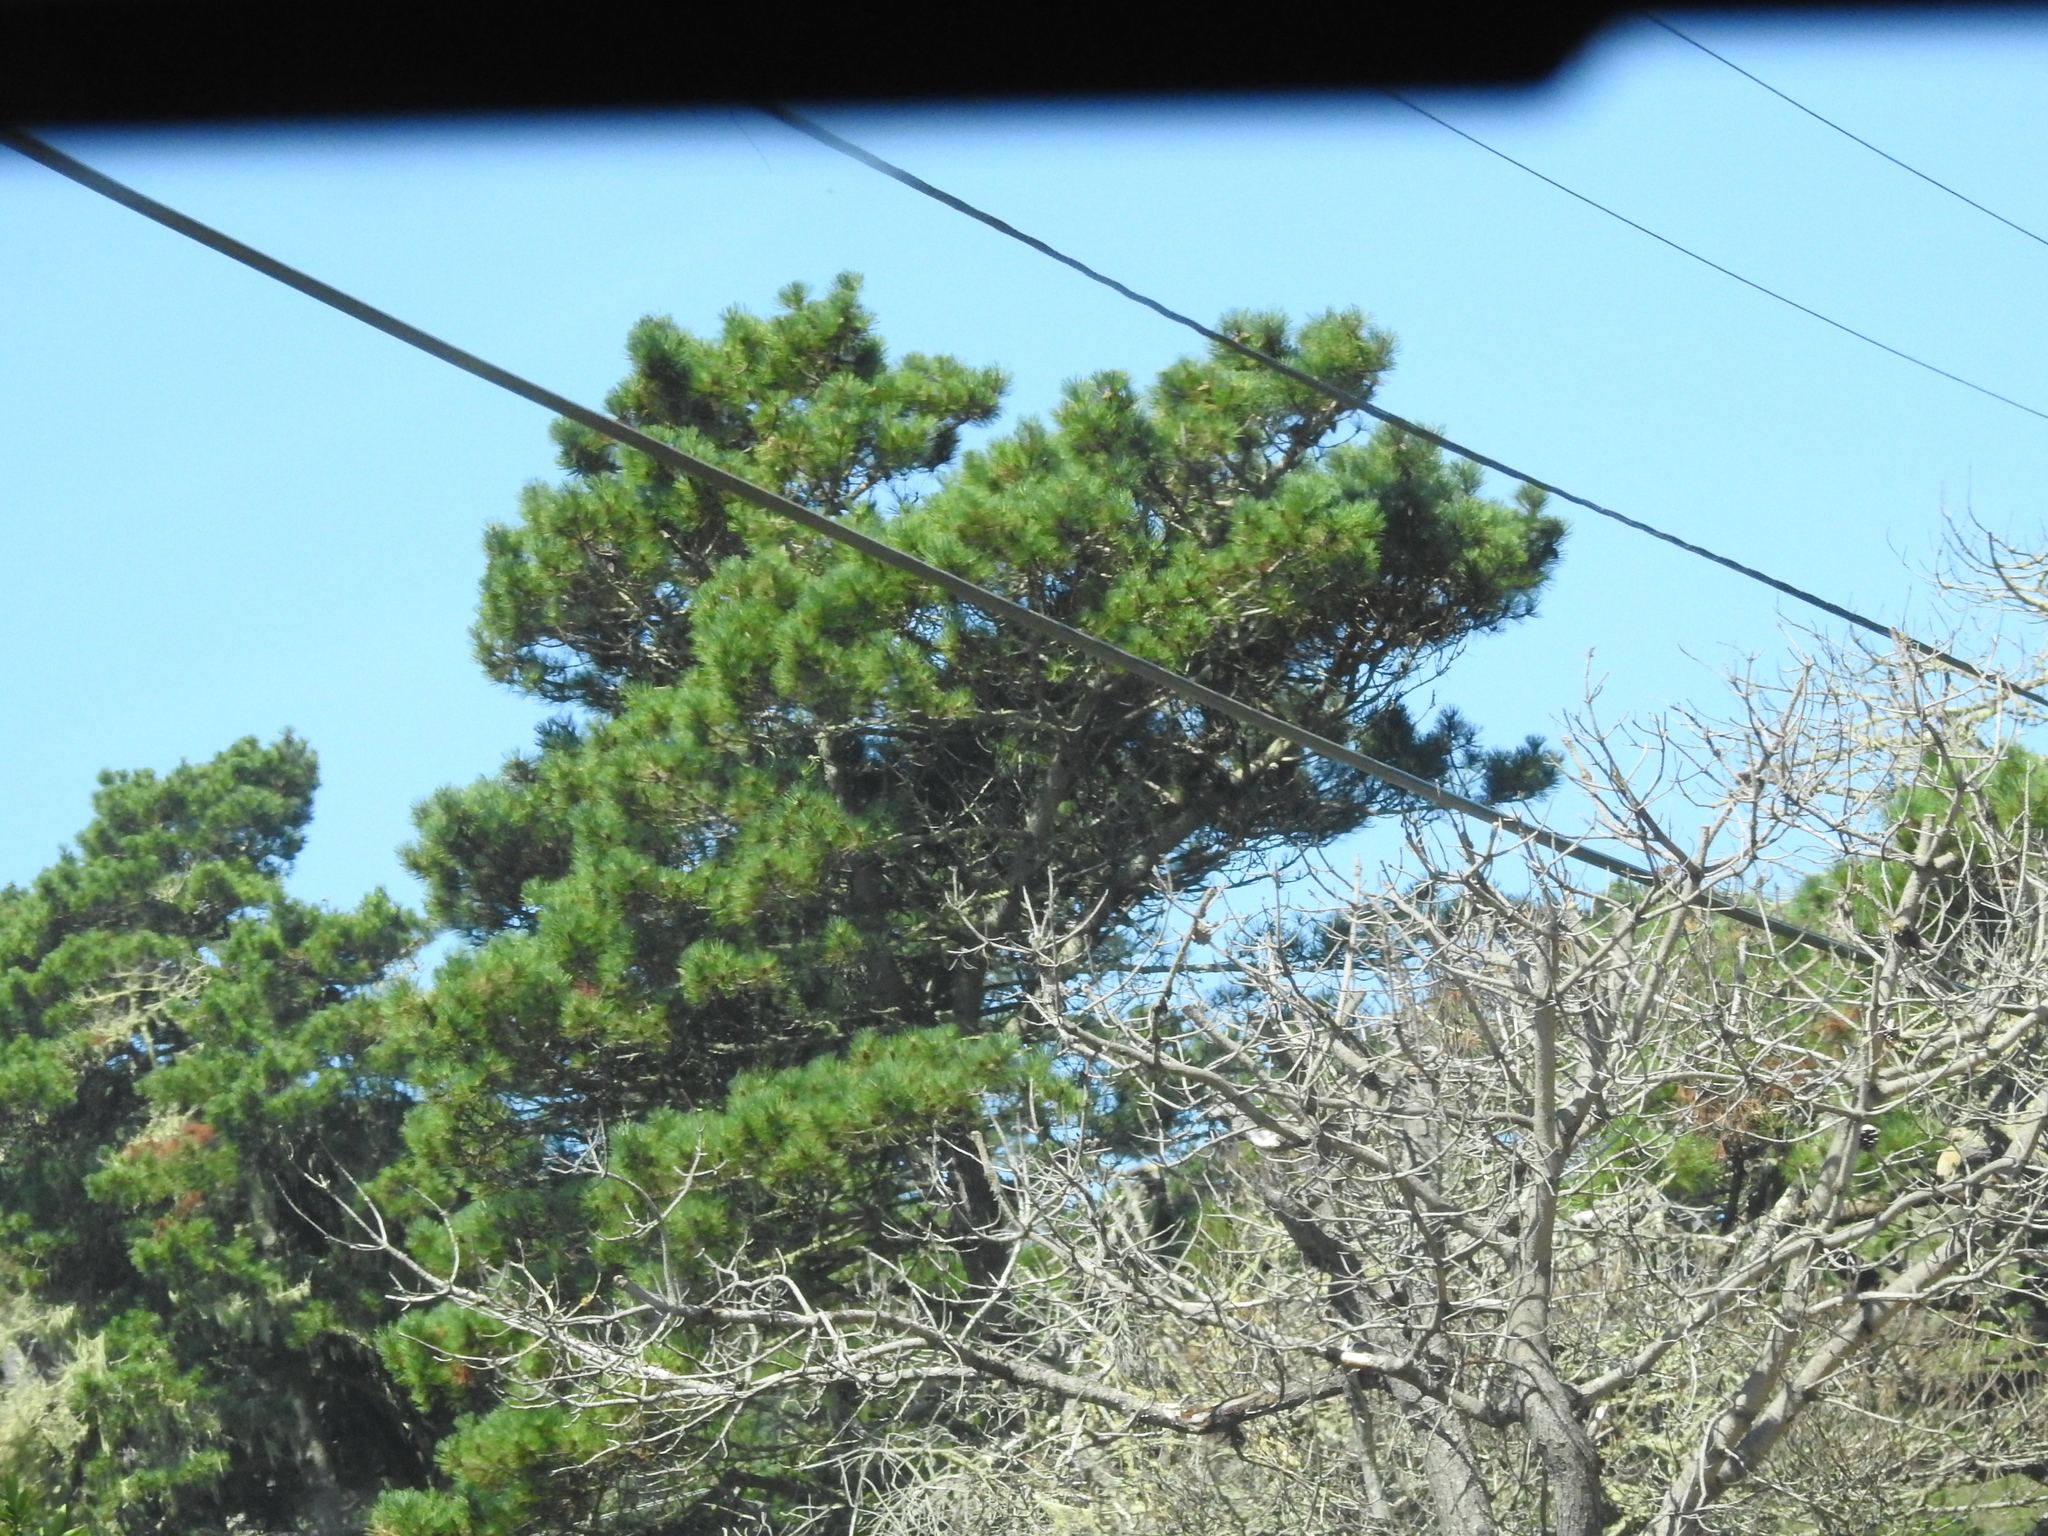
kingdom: Plantae
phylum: Tracheophyta
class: Pinopsida
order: Pinales
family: Pinaceae
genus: Pinus
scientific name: Pinus muricata
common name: Bishop pine
